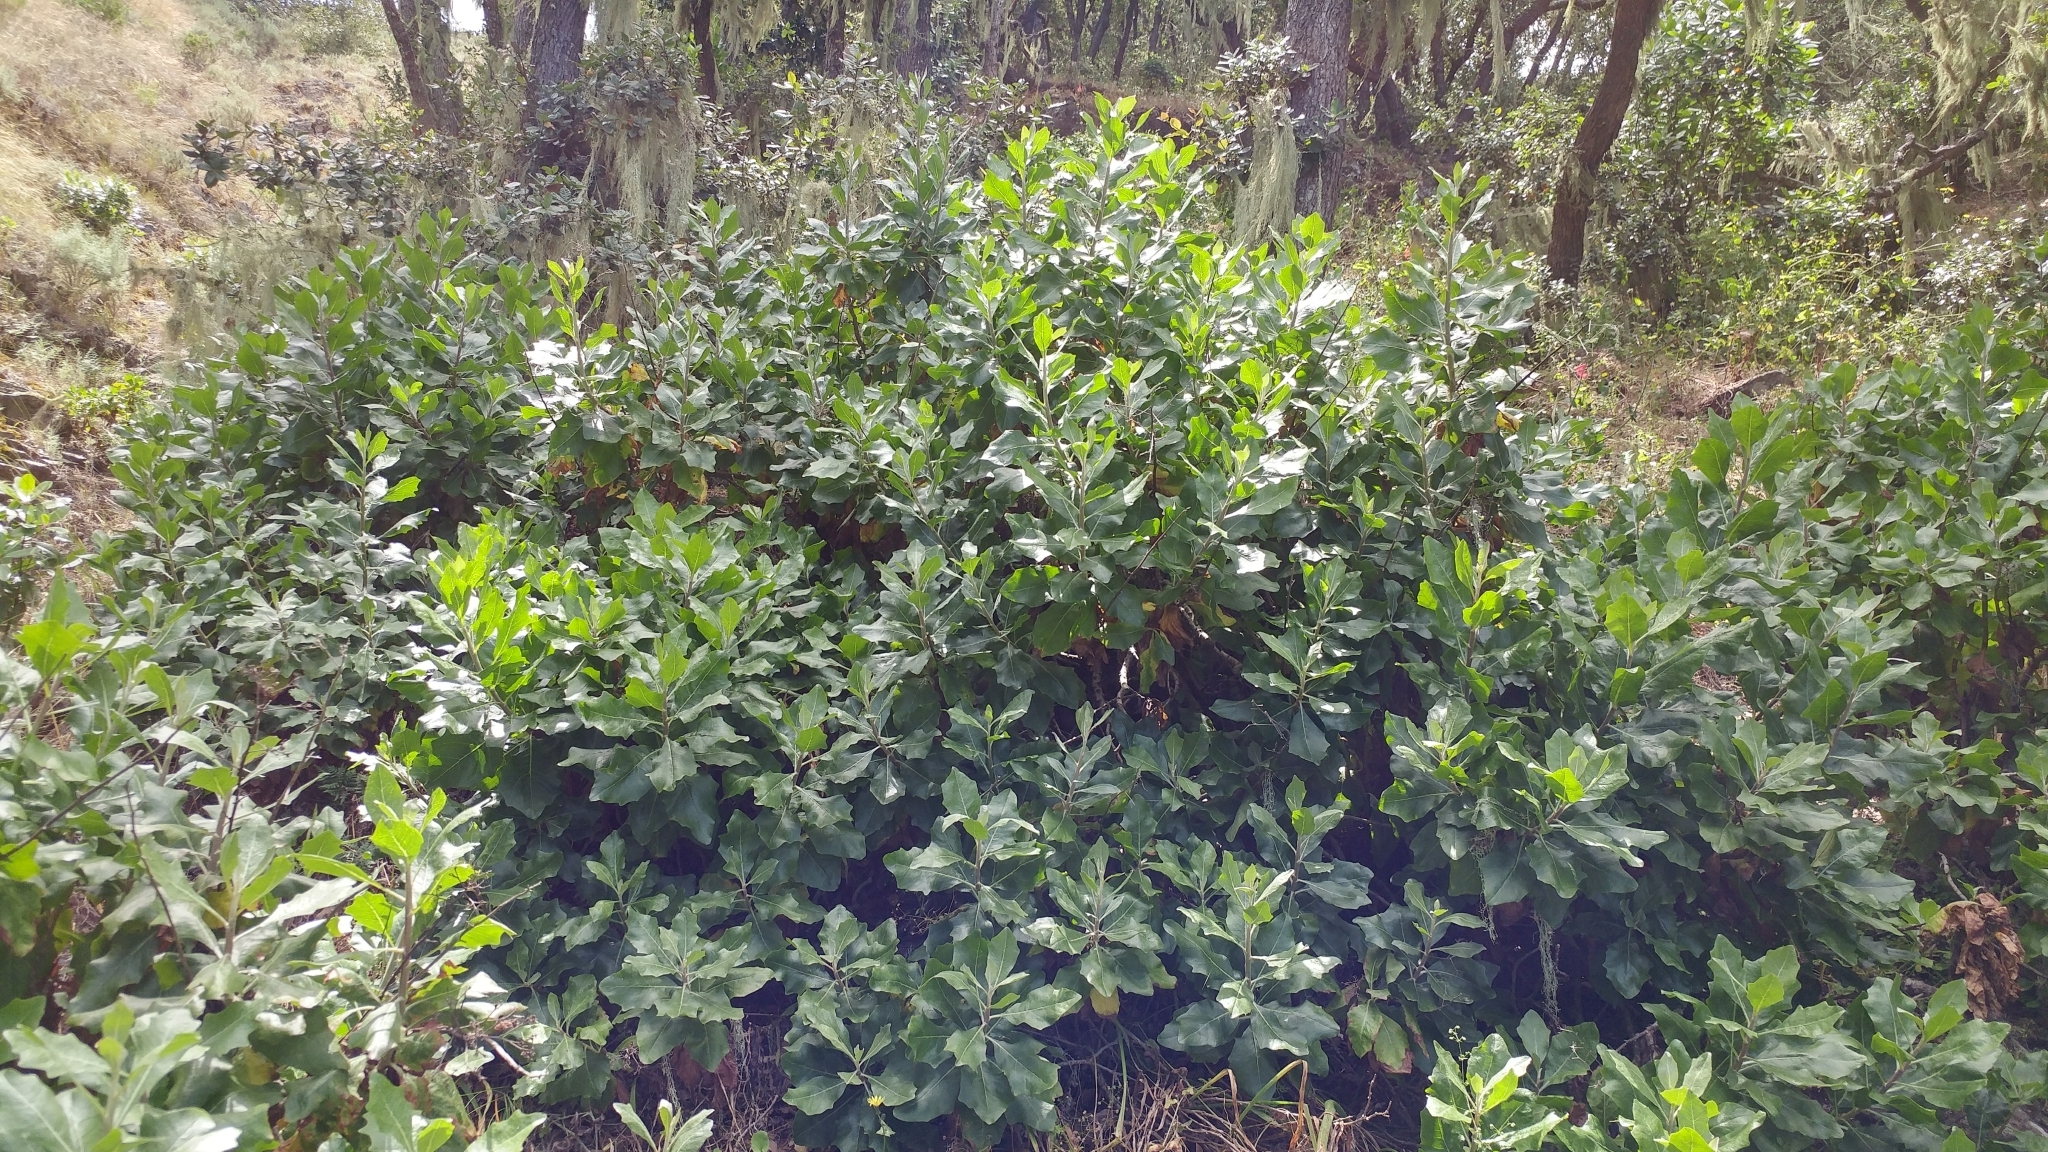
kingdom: Plantae
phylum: Tracheophyta
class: Magnoliopsida
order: Asterales
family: Asteraceae
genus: Munzothamnus
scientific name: Munzothamnus blairii
